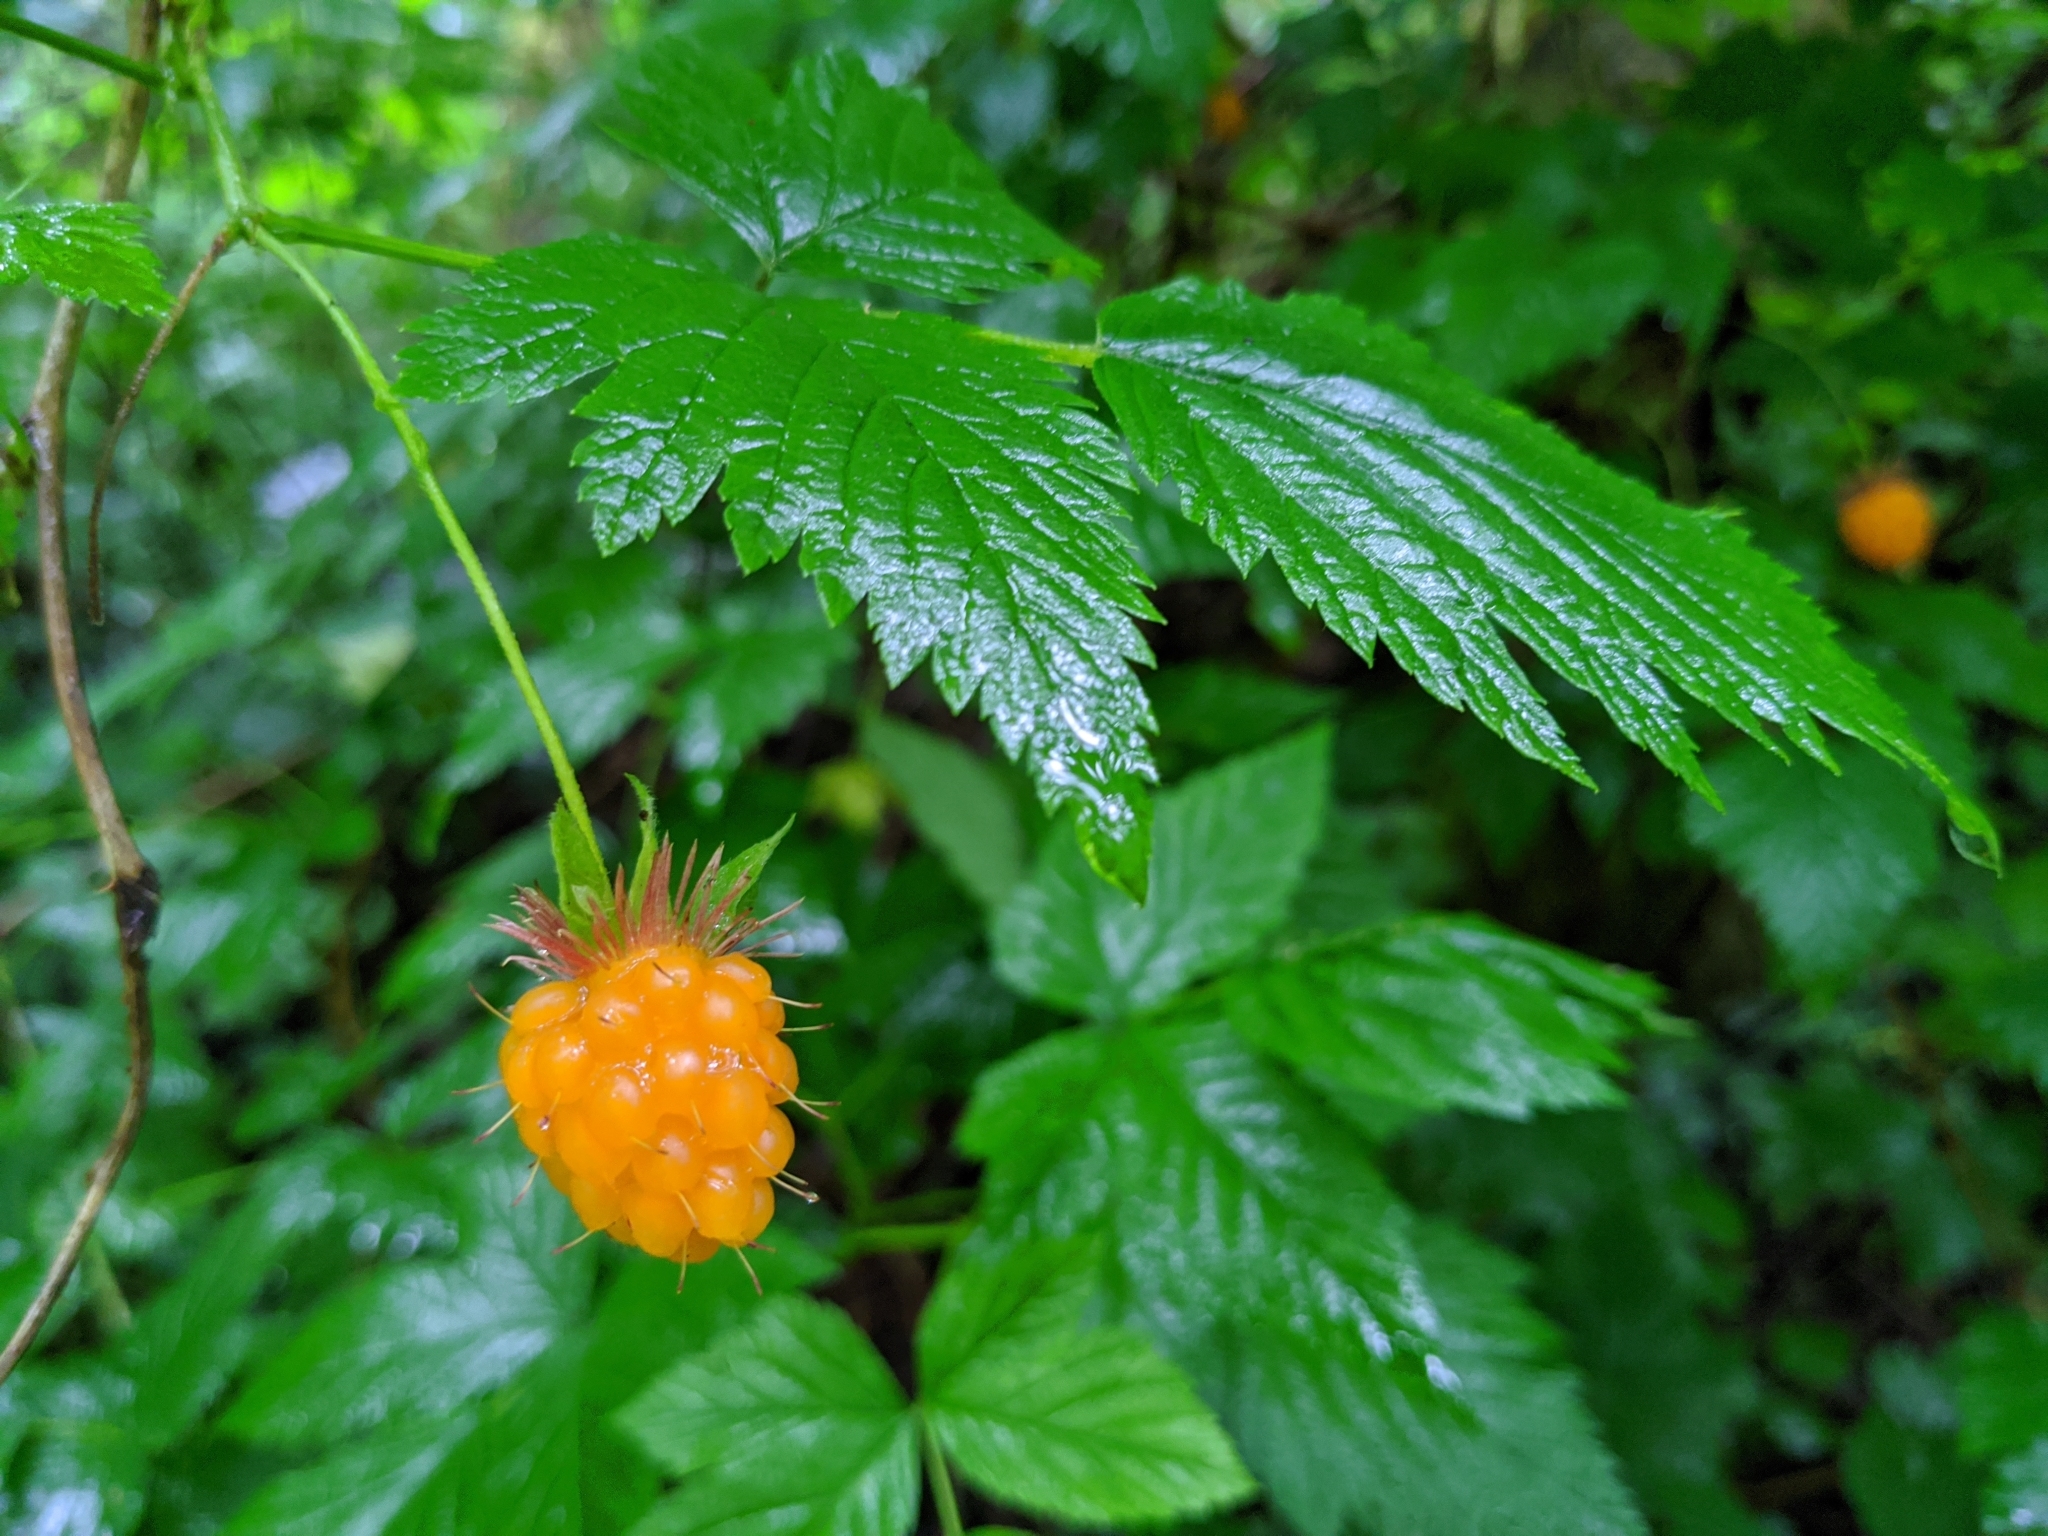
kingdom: Plantae
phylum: Tracheophyta
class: Magnoliopsida
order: Rosales
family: Rosaceae
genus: Rubus
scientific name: Rubus spectabilis
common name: Salmonberry
